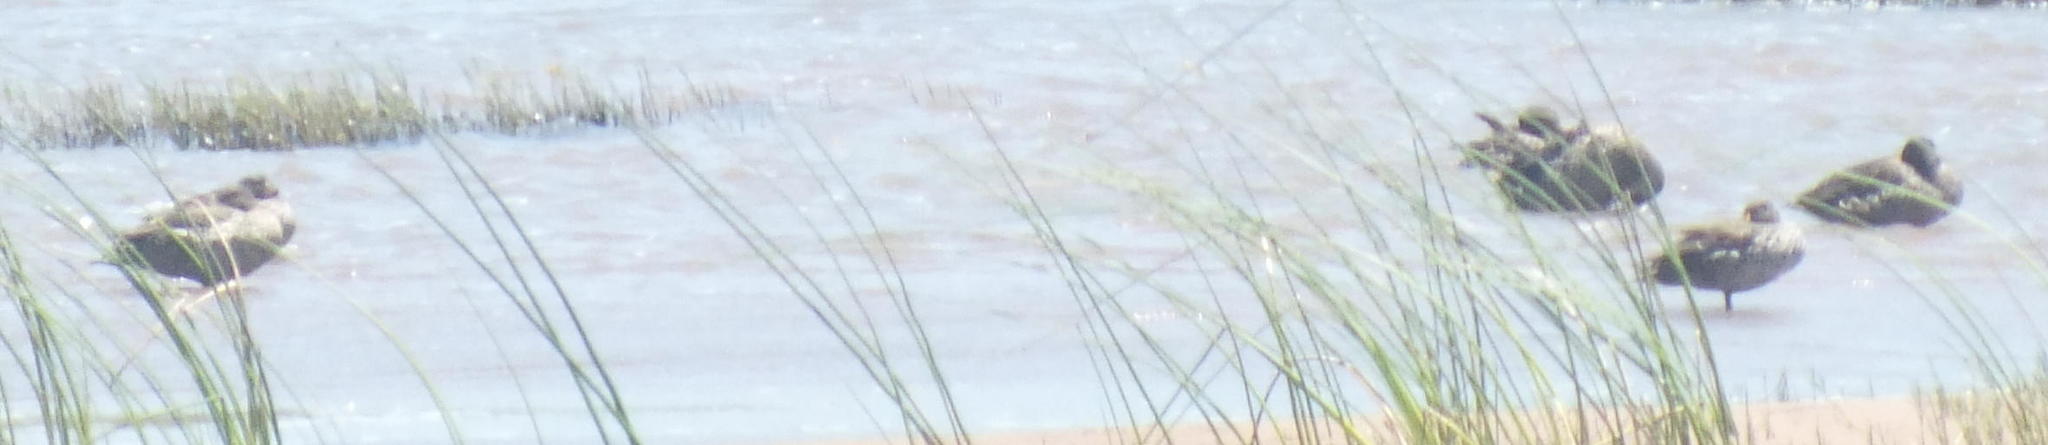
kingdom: Animalia
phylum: Chordata
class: Aves
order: Anseriformes
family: Anatidae
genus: Anas
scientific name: Anas undulata
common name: Yellow-billed duck
